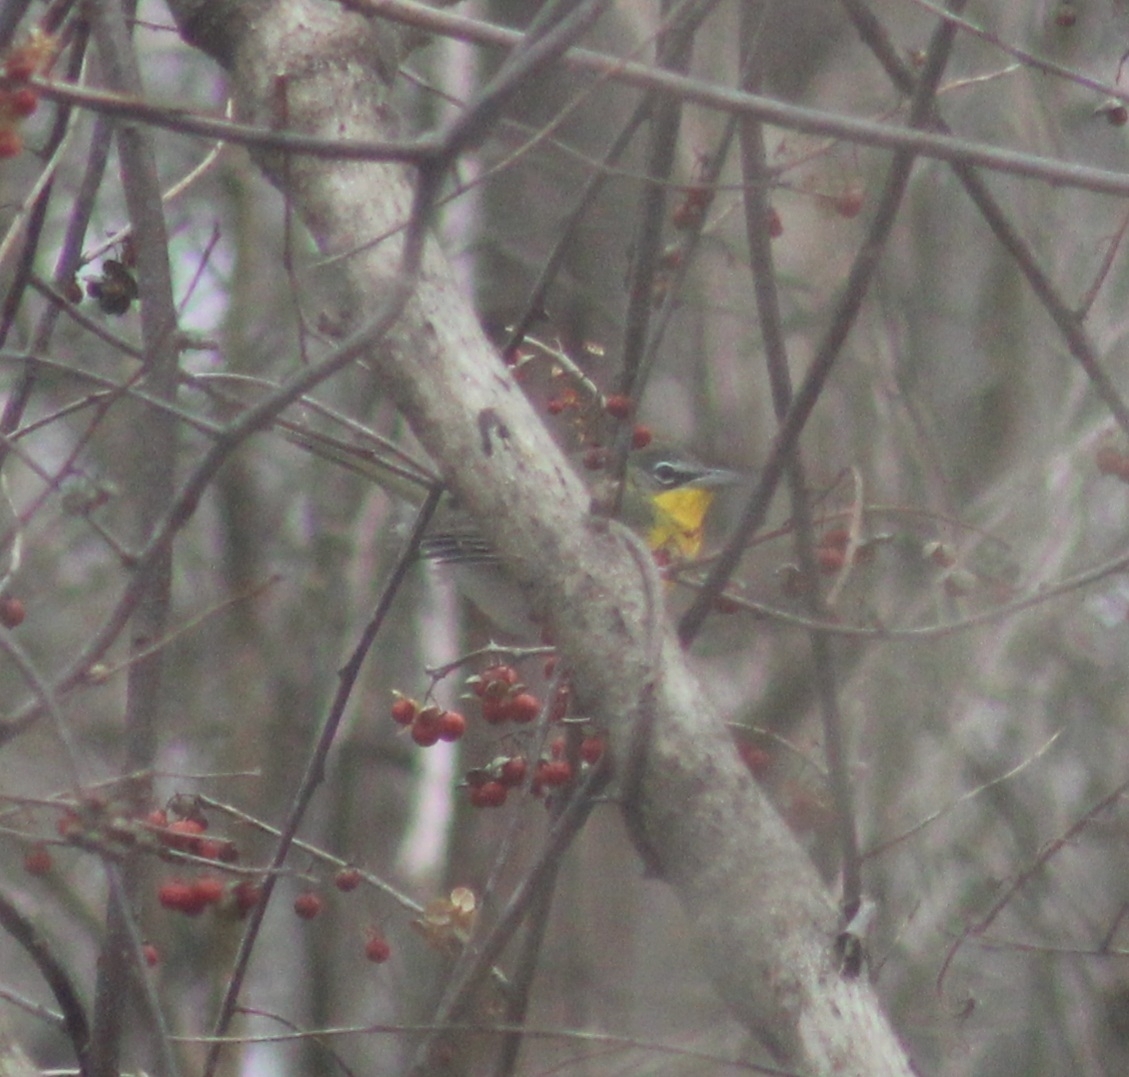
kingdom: Animalia
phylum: Chordata
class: Aves
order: Passeriformes
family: Parulidae
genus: Icteria
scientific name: Icteria virens
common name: Yellow-breasted chat
